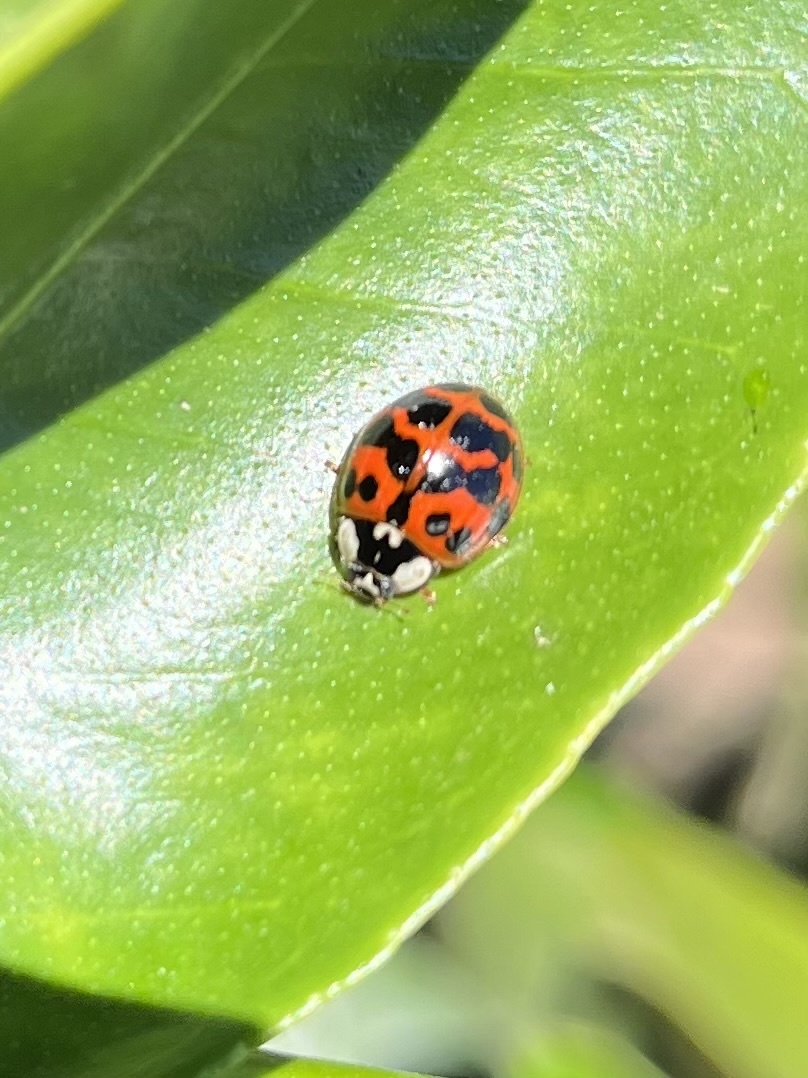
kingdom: Animalia
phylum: Arthropoda
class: Insecta
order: Coleoptera
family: Coccinellidae
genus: Harmonia
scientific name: Harmonia axyridis
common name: Harlequin ladybird
